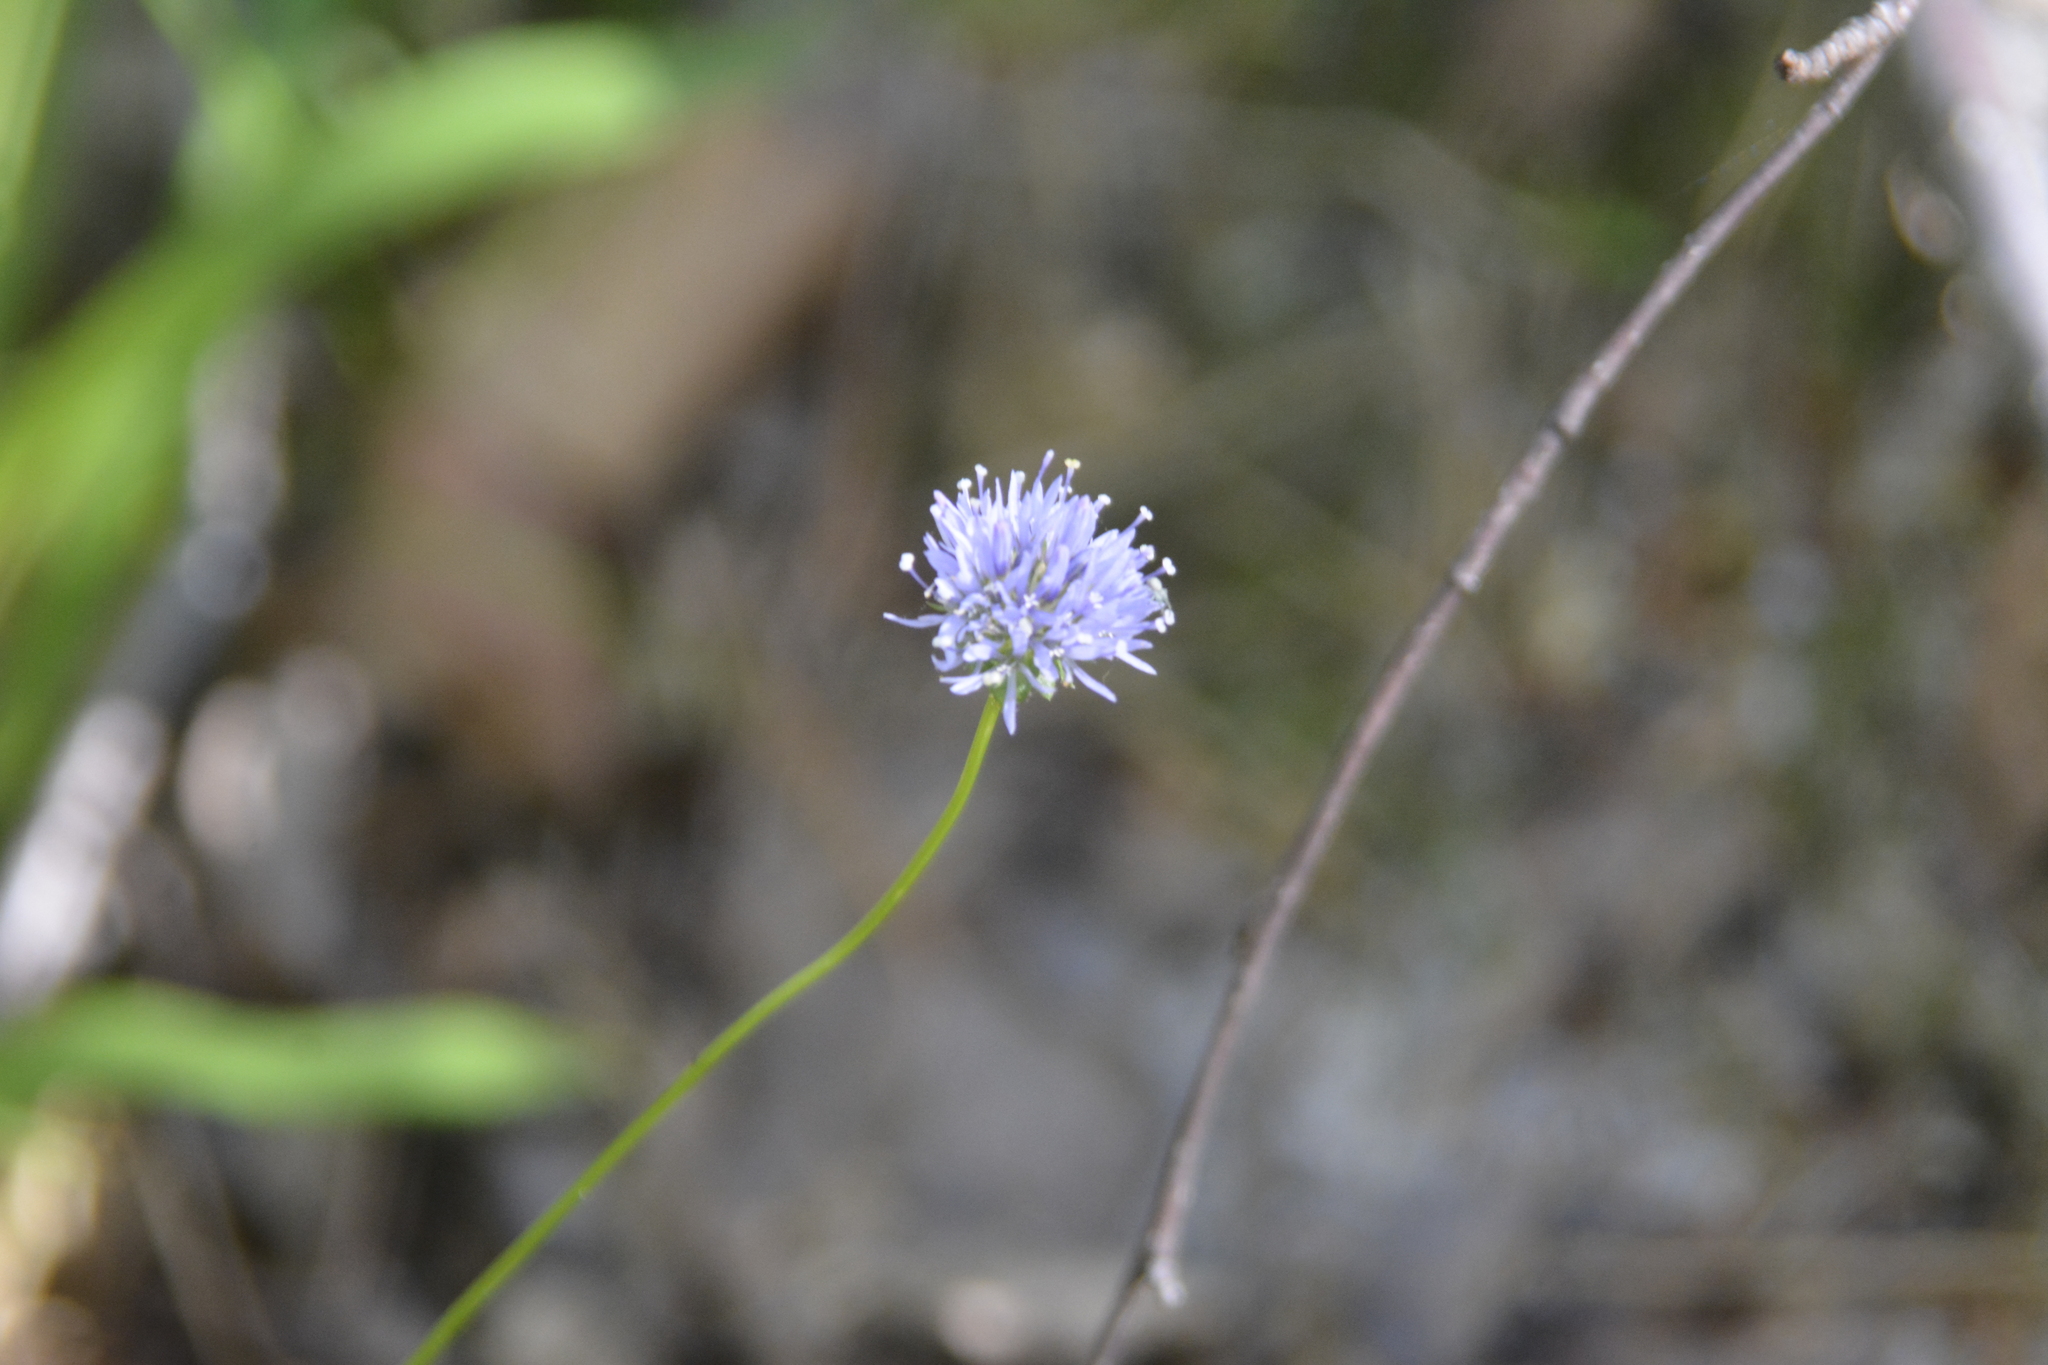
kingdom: Plantae
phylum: Tracheophyta
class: Magnoliopsida
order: Asterales
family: Campanulaceae
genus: Jasione
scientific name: Jasione montana
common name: Sheep's-bit
